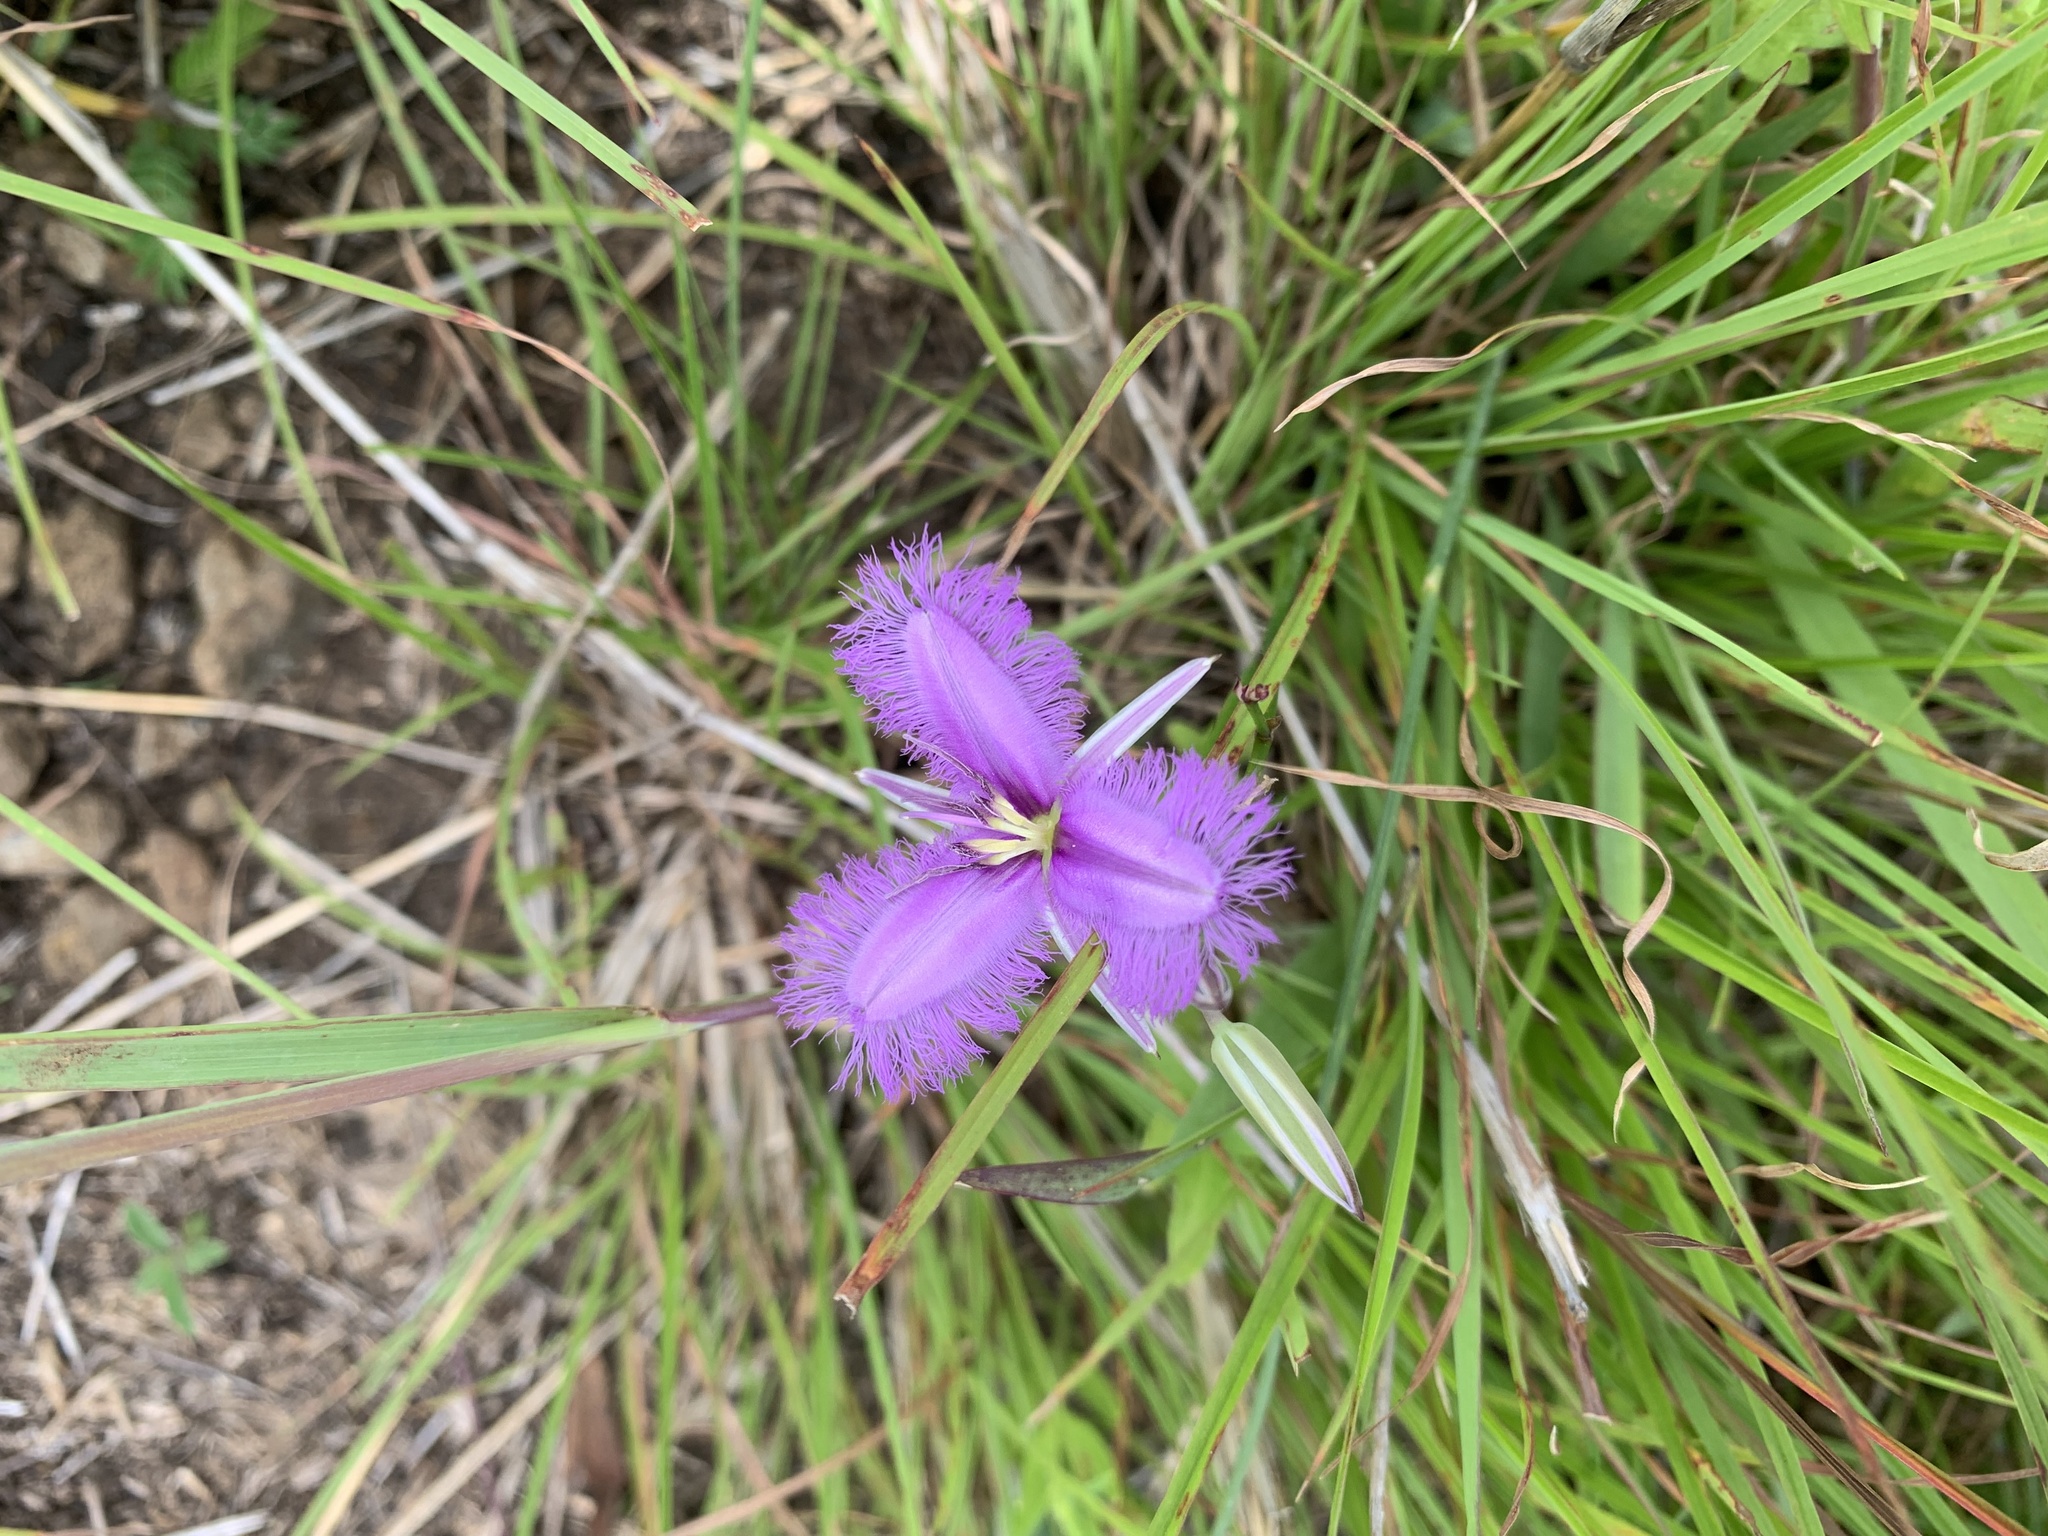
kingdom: Plantae
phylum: Tracheophyta
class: Liliopsida
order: Asparagales
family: Asparagaceae
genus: Thysanotus
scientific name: Thysanotus tuberosus
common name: Common fringed-lily
